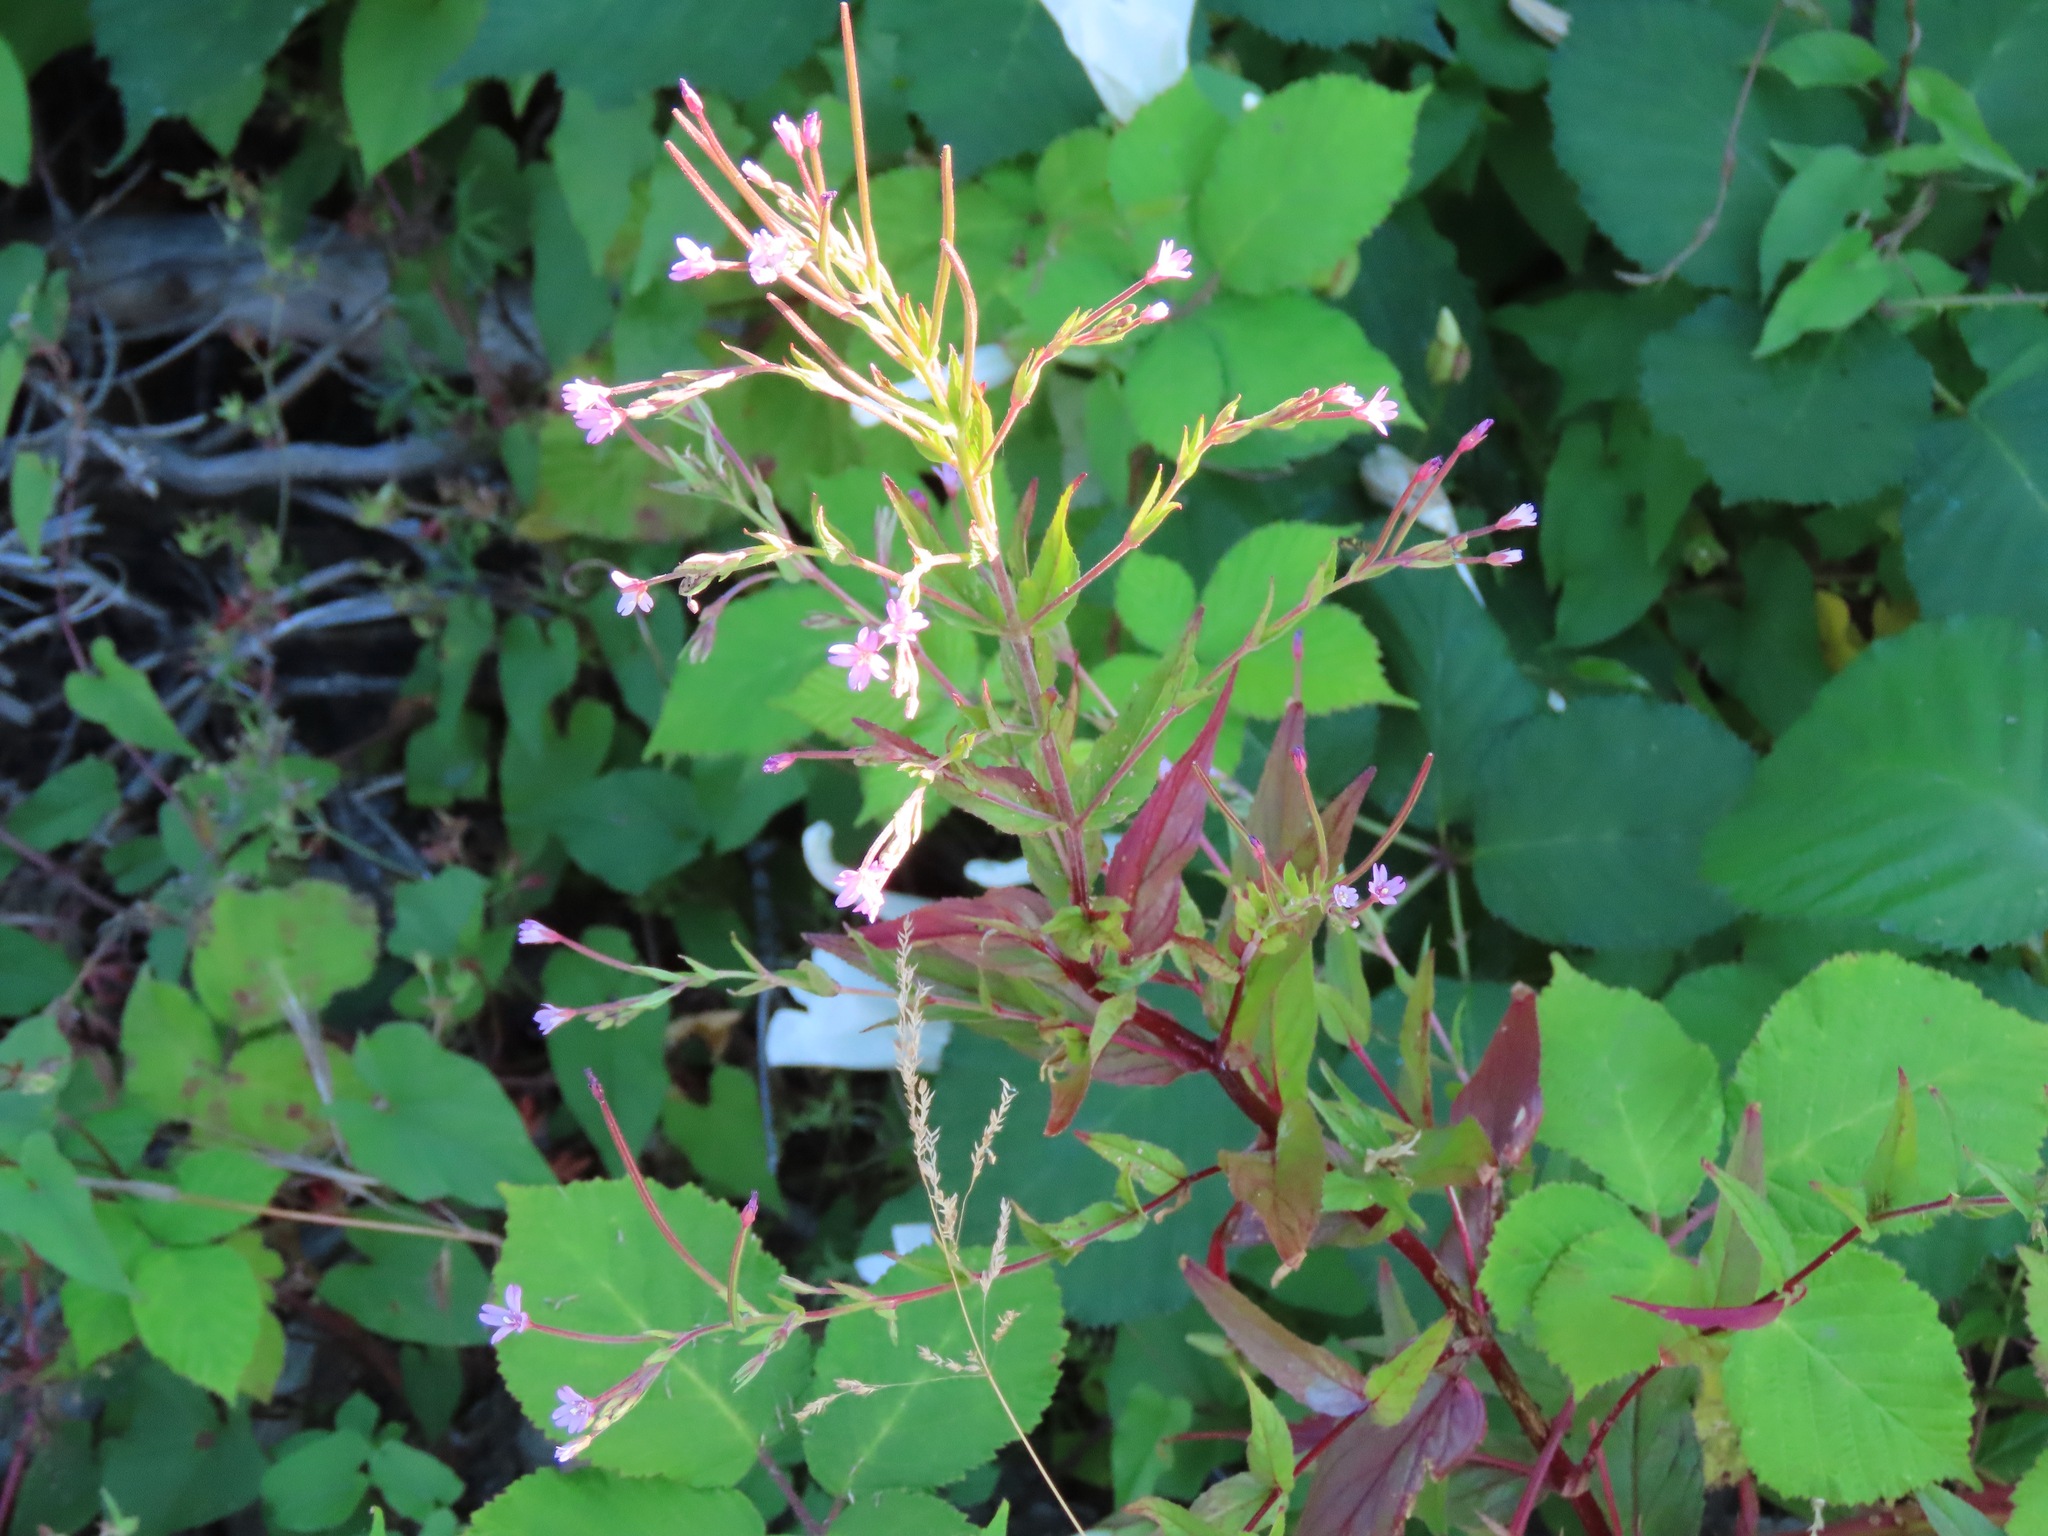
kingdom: Plantae
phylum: Tracheophyta
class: Magnoliopsida
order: Myrtales
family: Onagraceae
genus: Epilobium
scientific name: Epilobium ciliatum
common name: American willowherb
